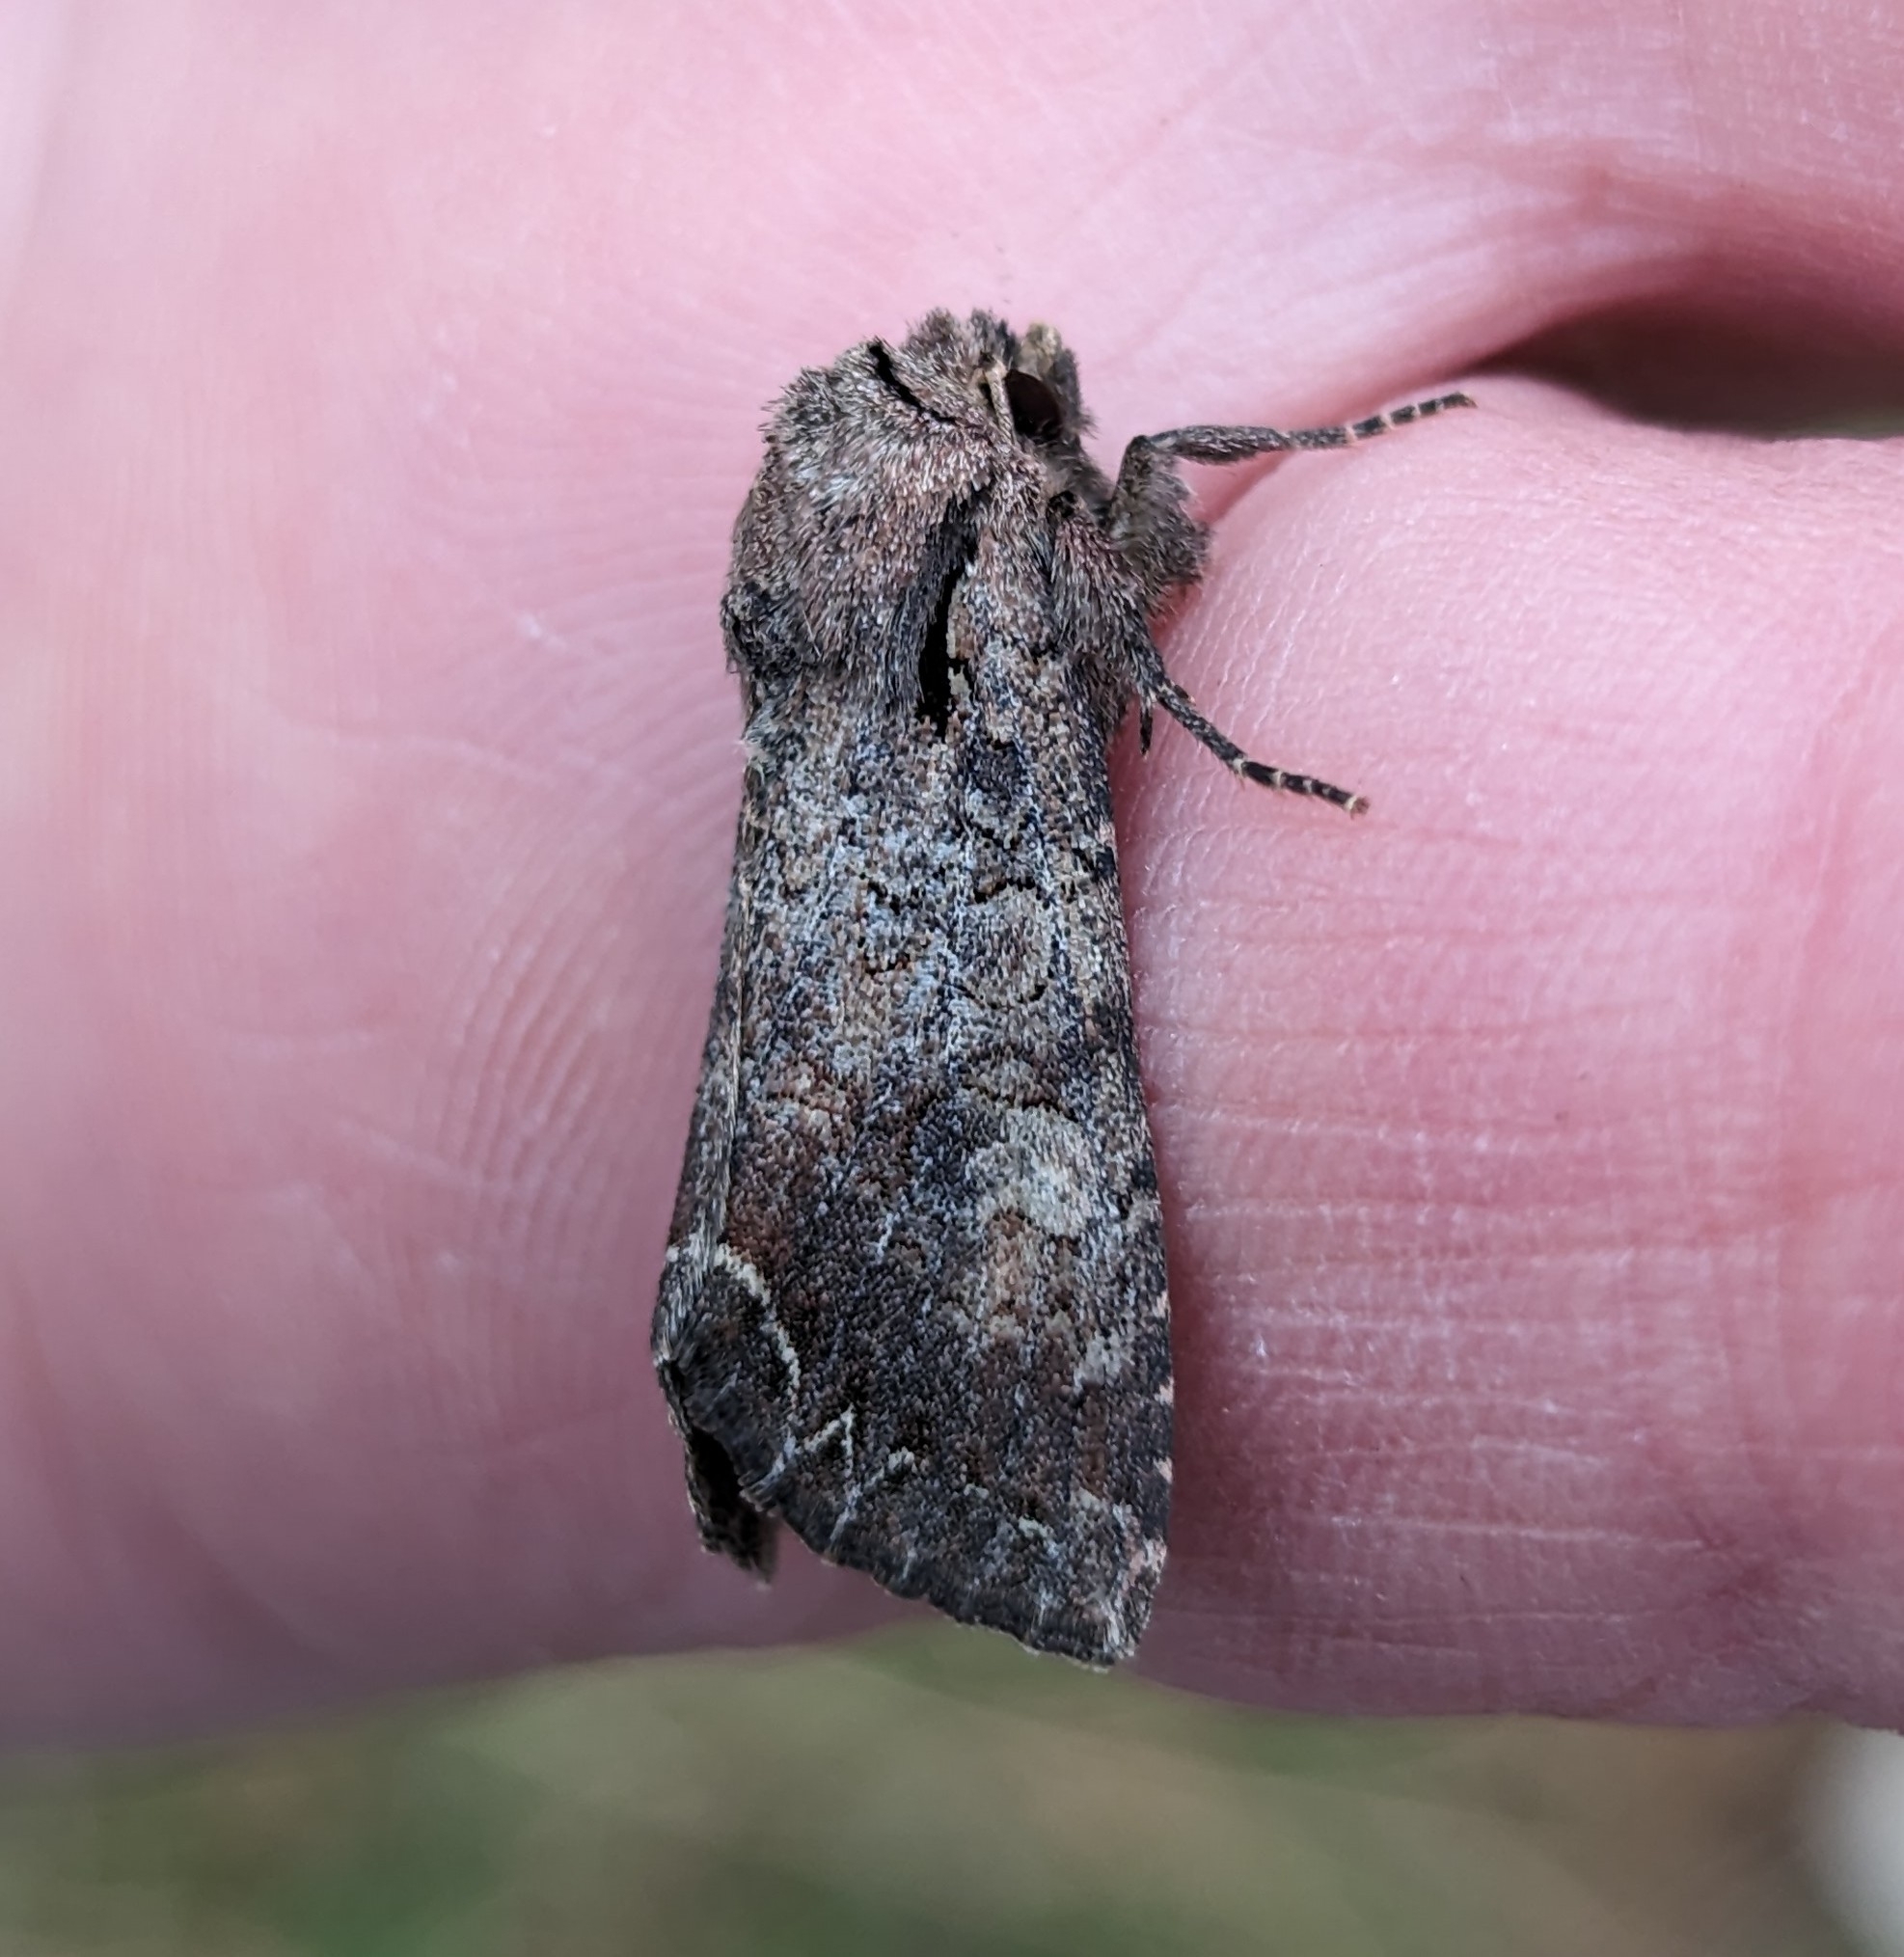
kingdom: Animalia
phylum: Arthropoda
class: Insecta
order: Lepidoptera
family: Noctuidae
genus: Lacanobia
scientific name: Lacanobia radix
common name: Garden arches moth
